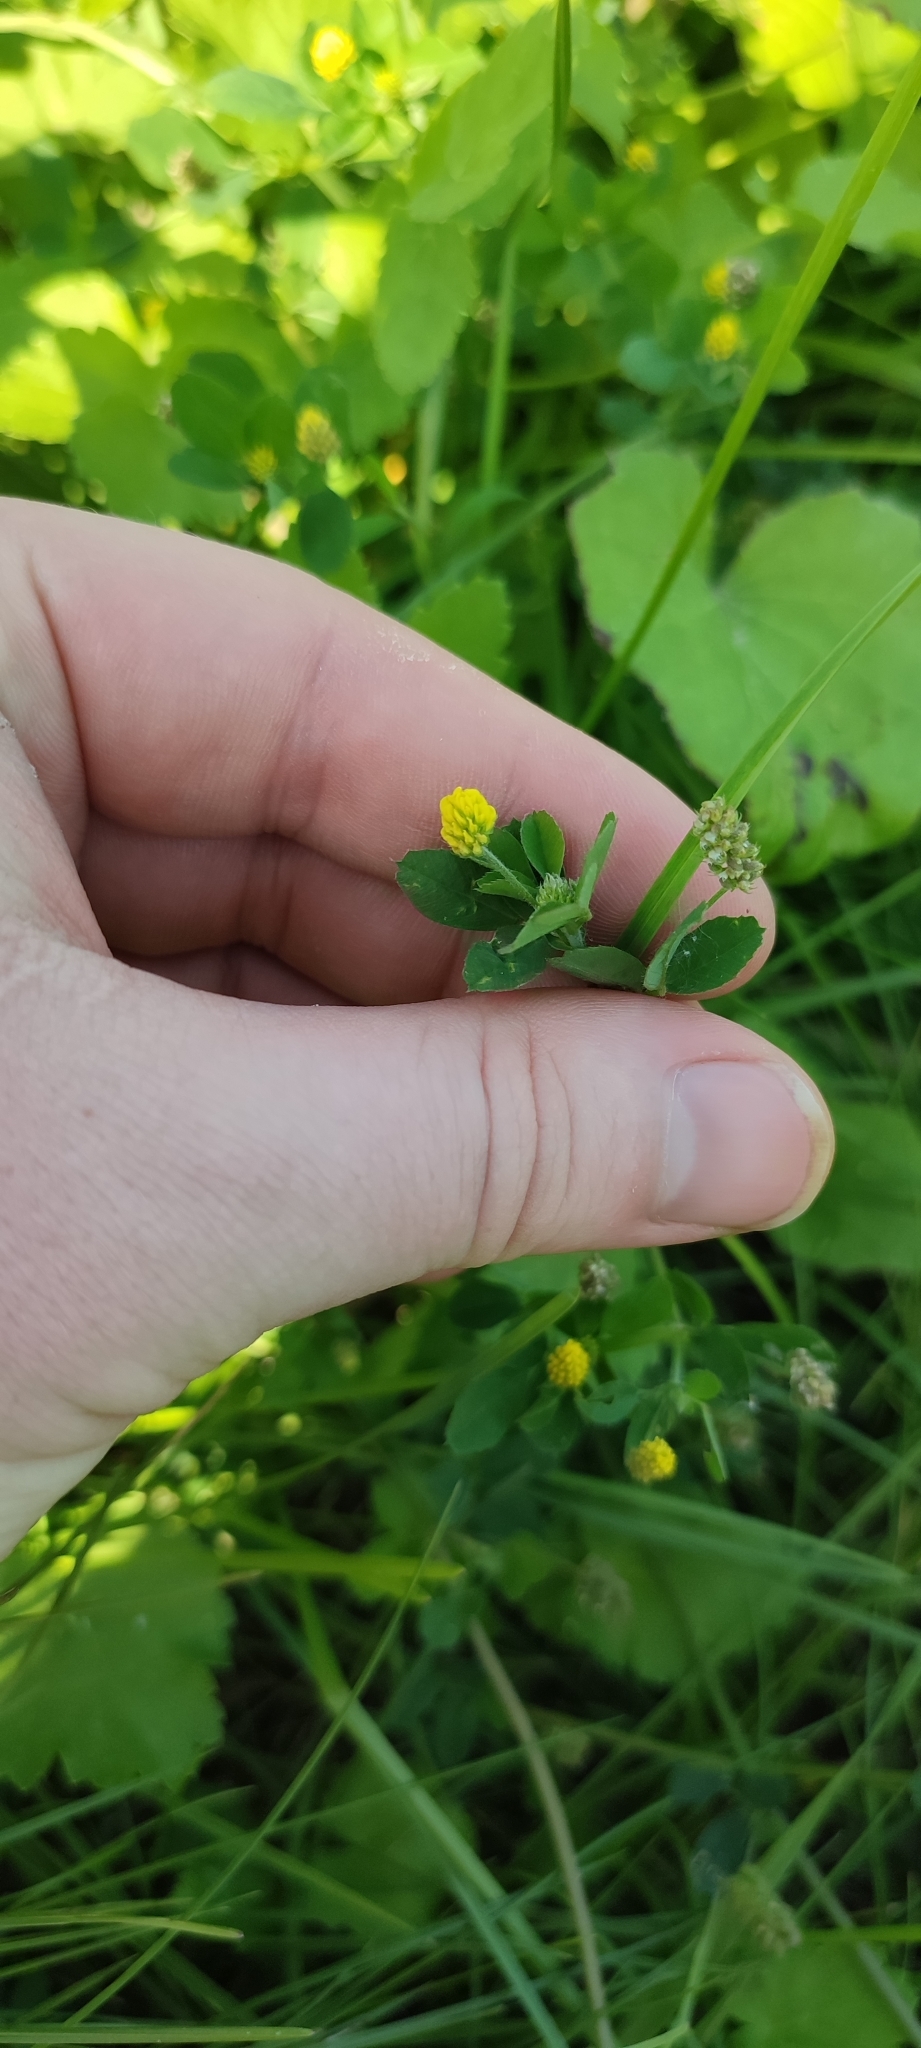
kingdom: Plantae
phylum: Tracheophyta
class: Magnoliopsida
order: Fabales
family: Fabaceae
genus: Medicago
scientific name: Medicago lupulina
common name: Black medick
